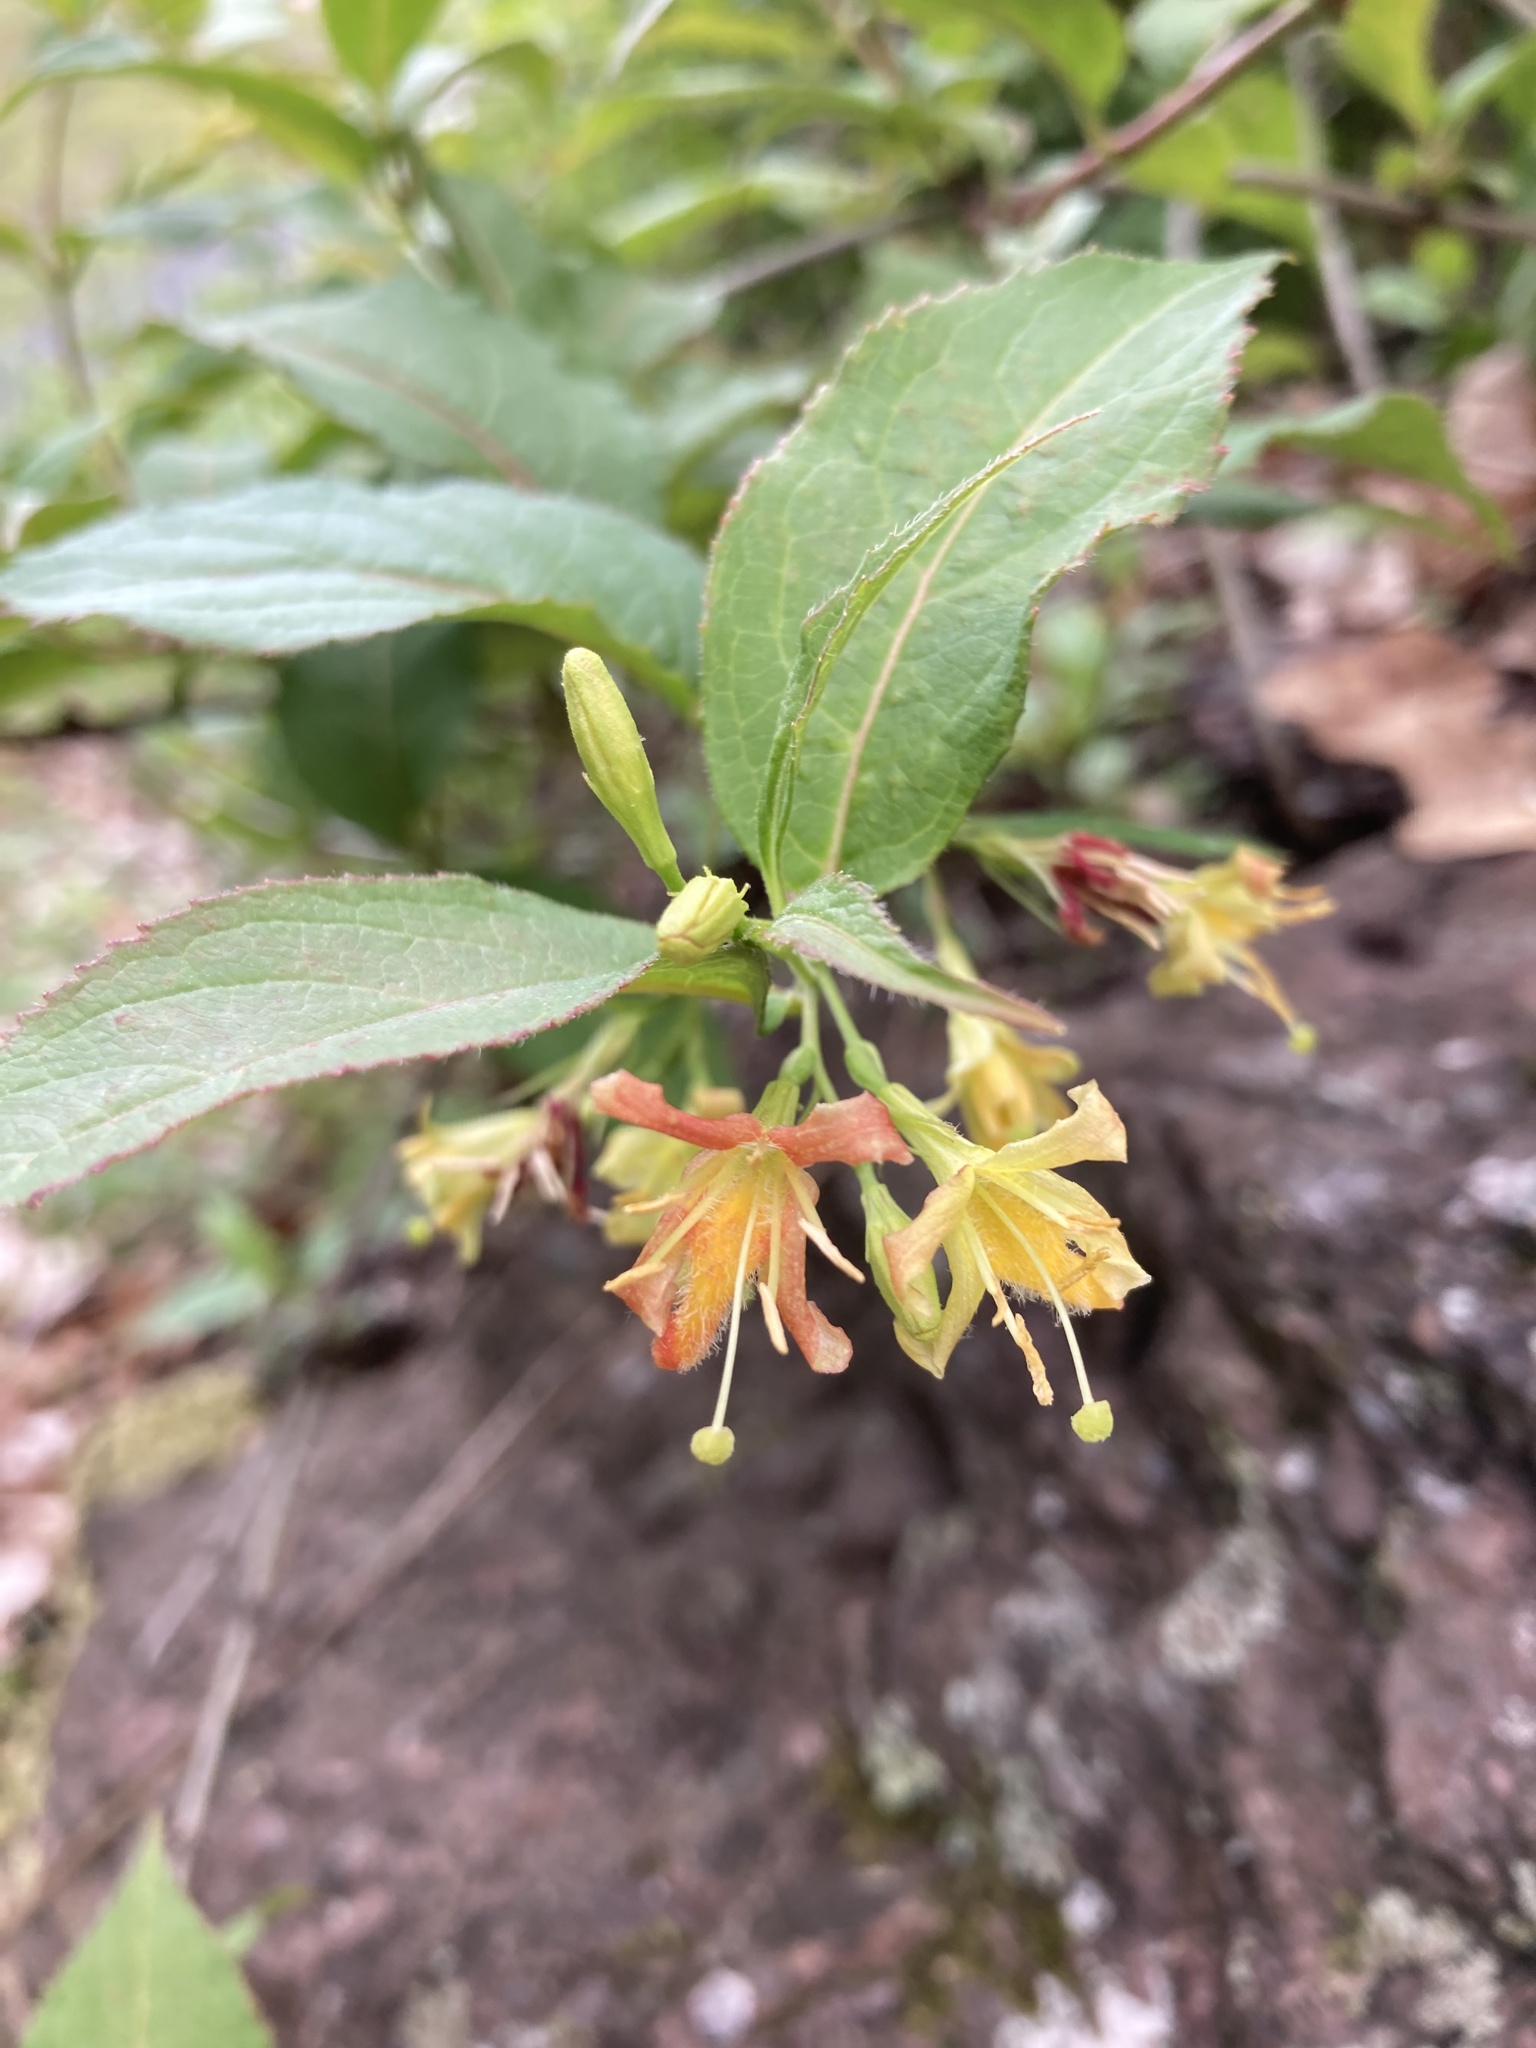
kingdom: Plantae
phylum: Tracheophyta
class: Magnoliopsida
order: Dipsacales
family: Caprifoliaceae
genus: Diervilla
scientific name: Diervilla lonicera
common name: Bush-honeysuckle
